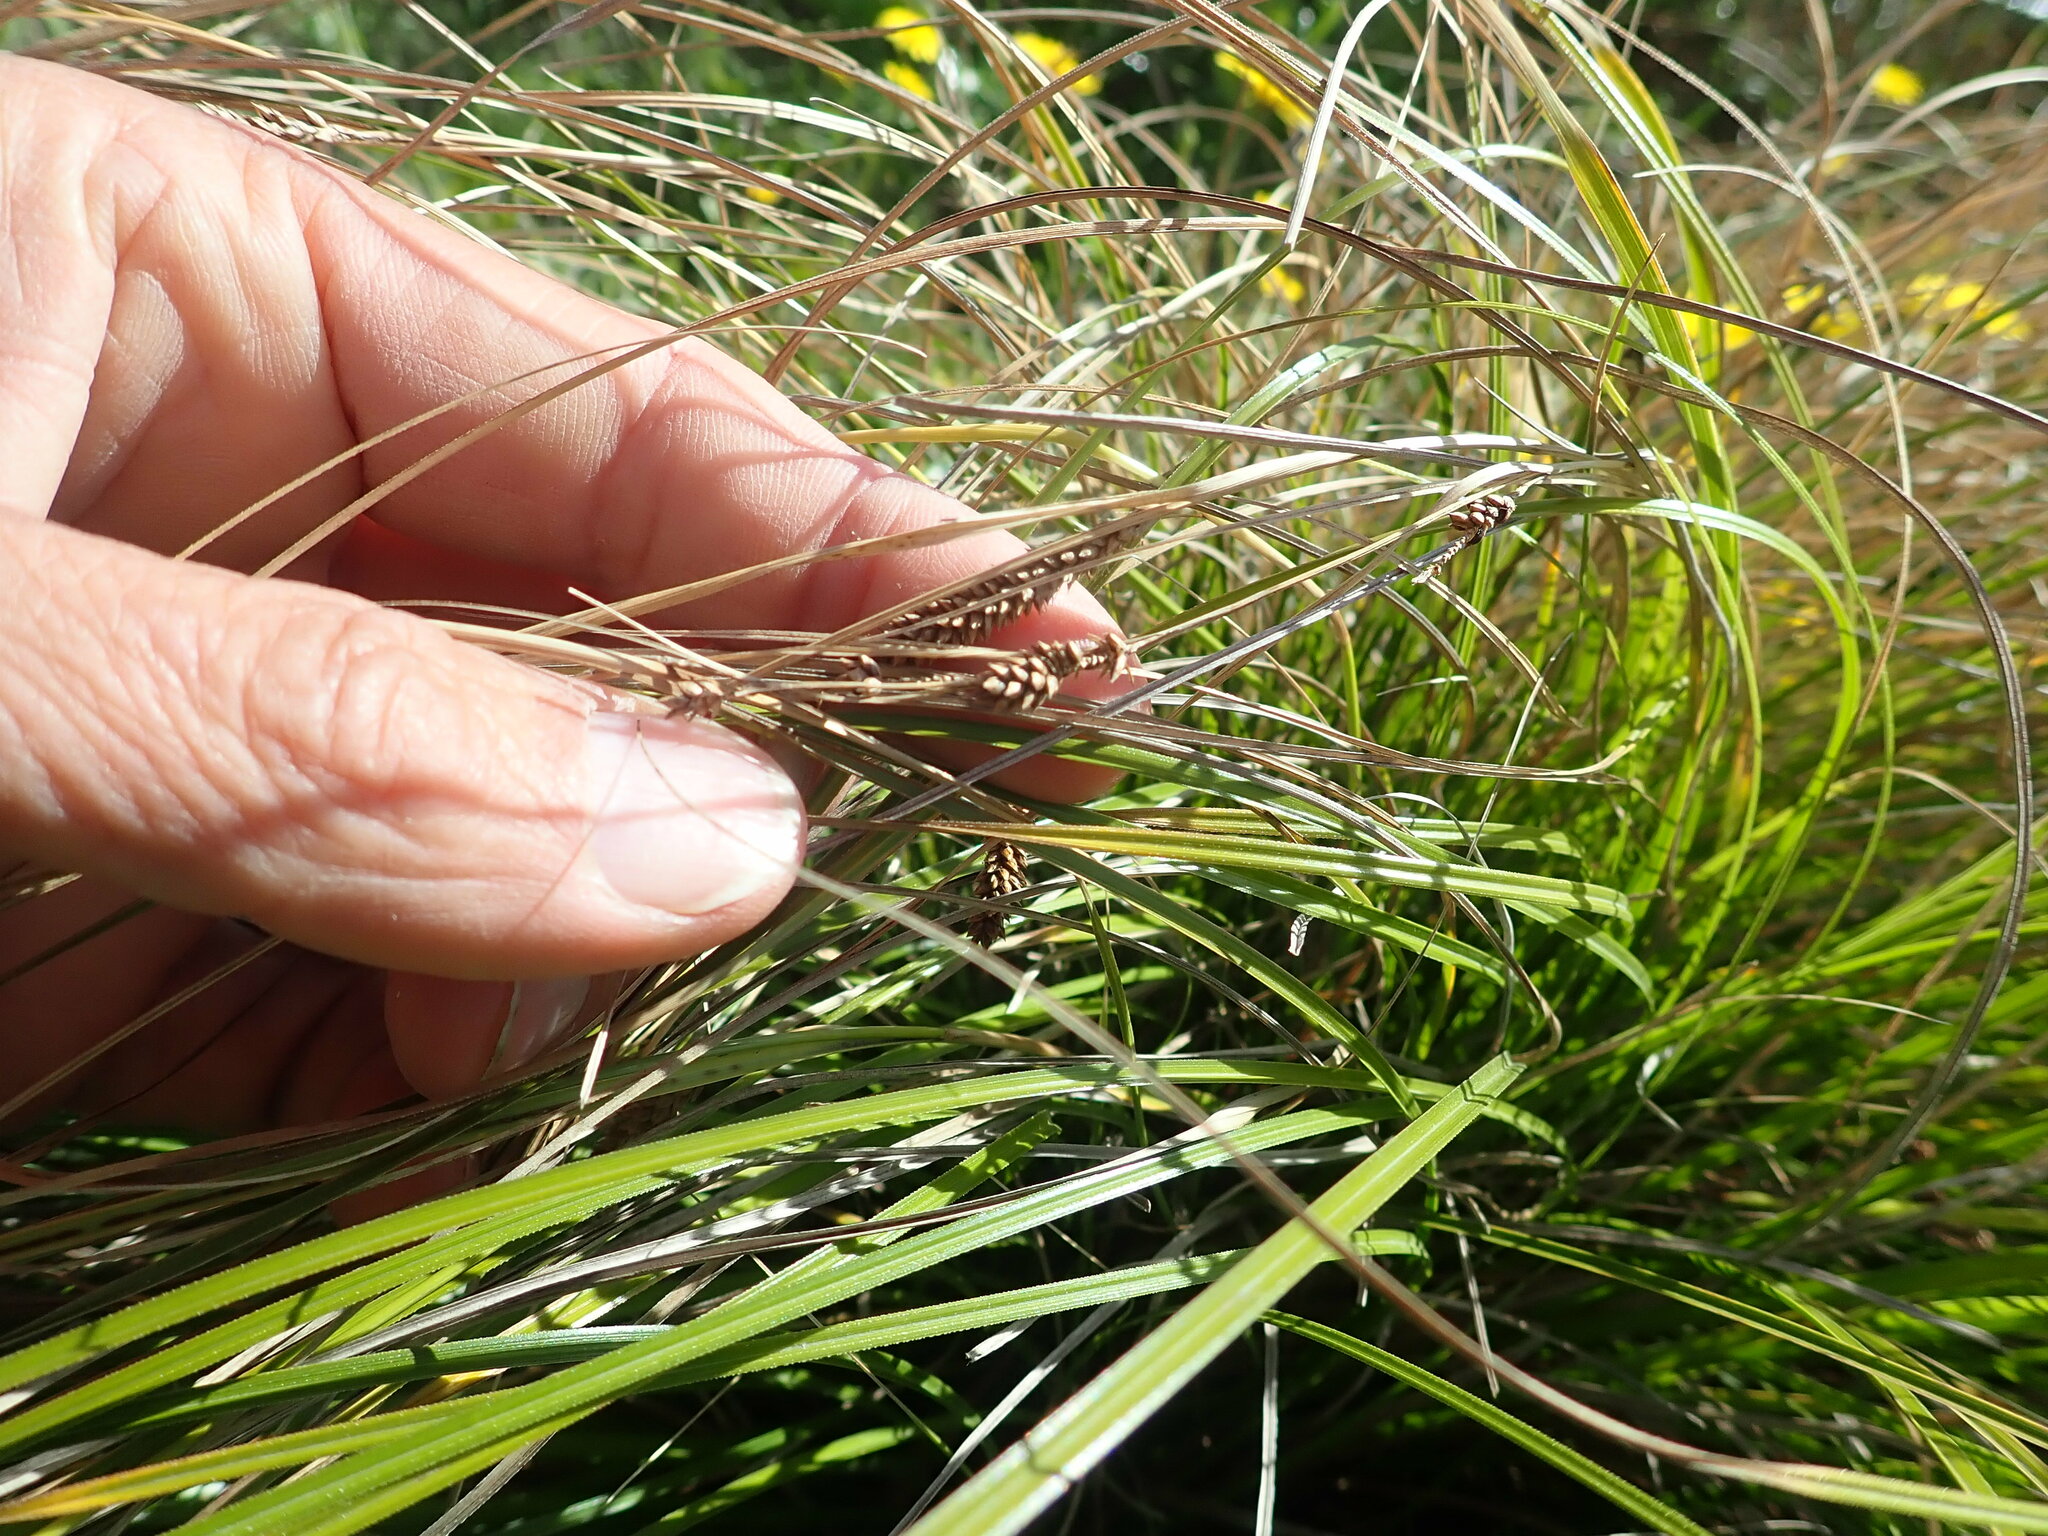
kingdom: Plantae
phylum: Tracheophyta
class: Liliopsida
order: Poales
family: Cyperaceae
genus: Carex
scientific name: Carex testacea
